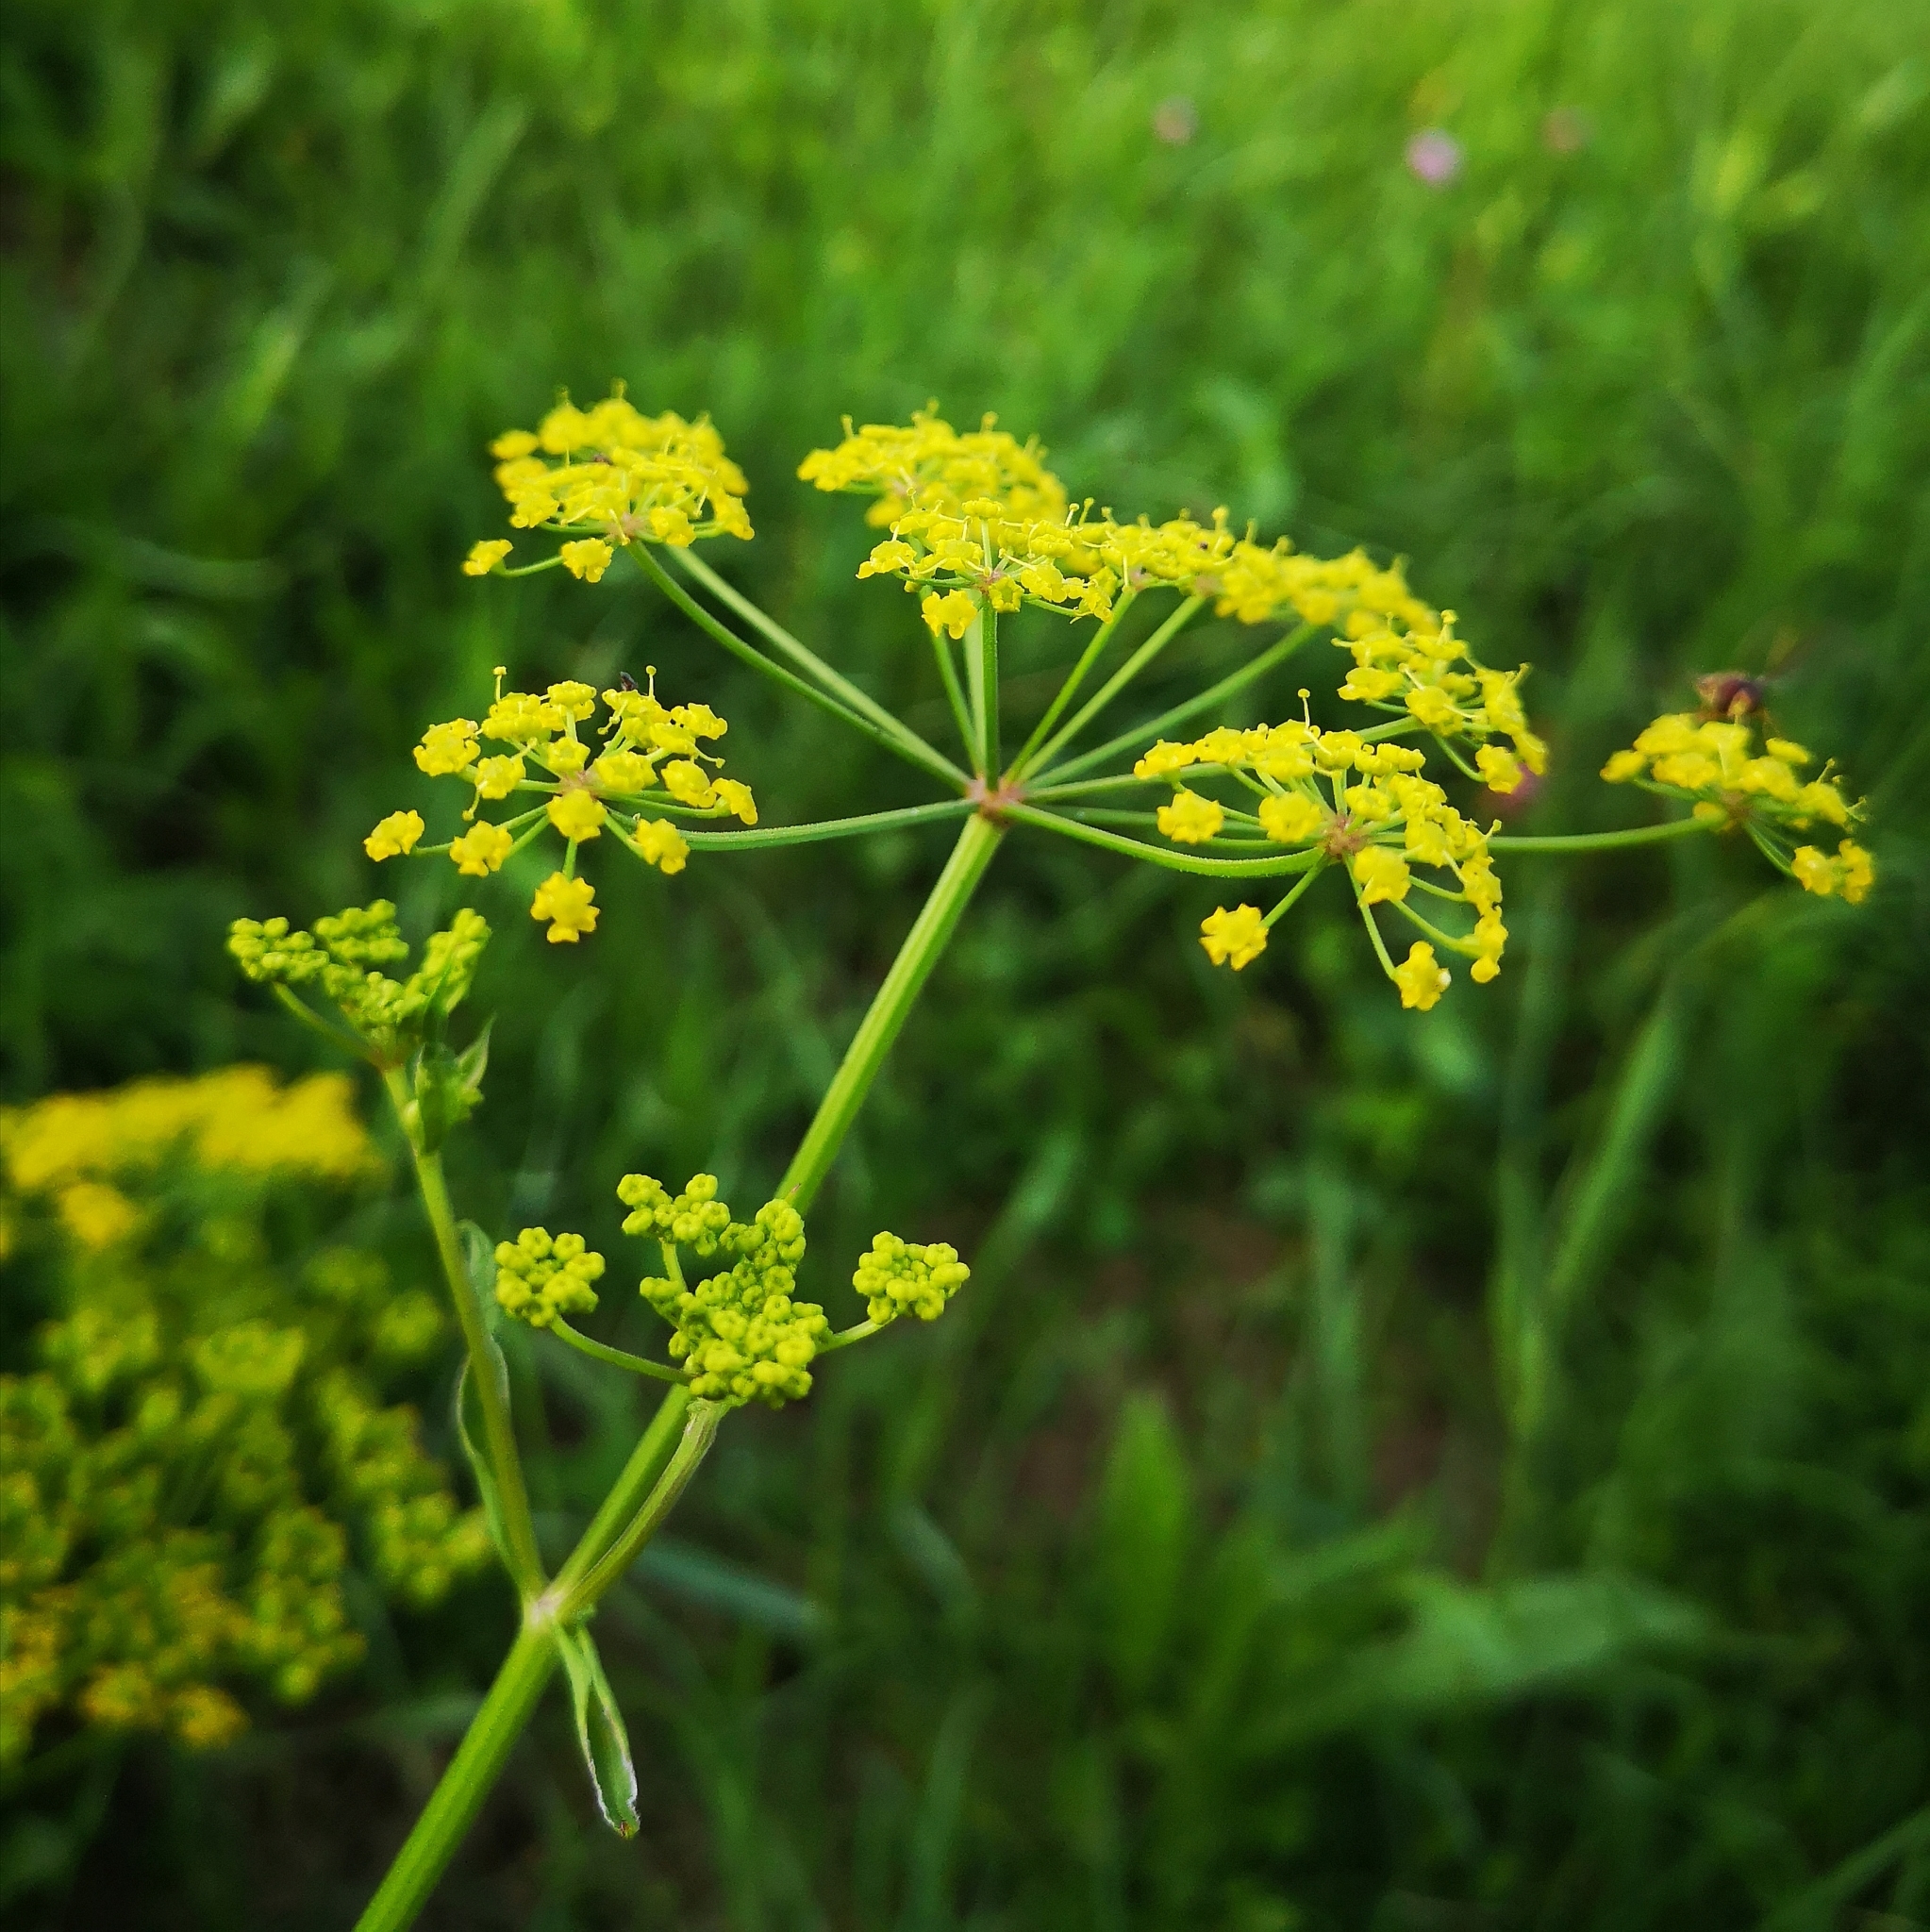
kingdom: Plantae
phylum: Tracheophyta
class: Magnoliopsida
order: Apiales
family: Apiaceae
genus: Pastinaca
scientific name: Pastinaca sativa
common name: Wild parsnip
